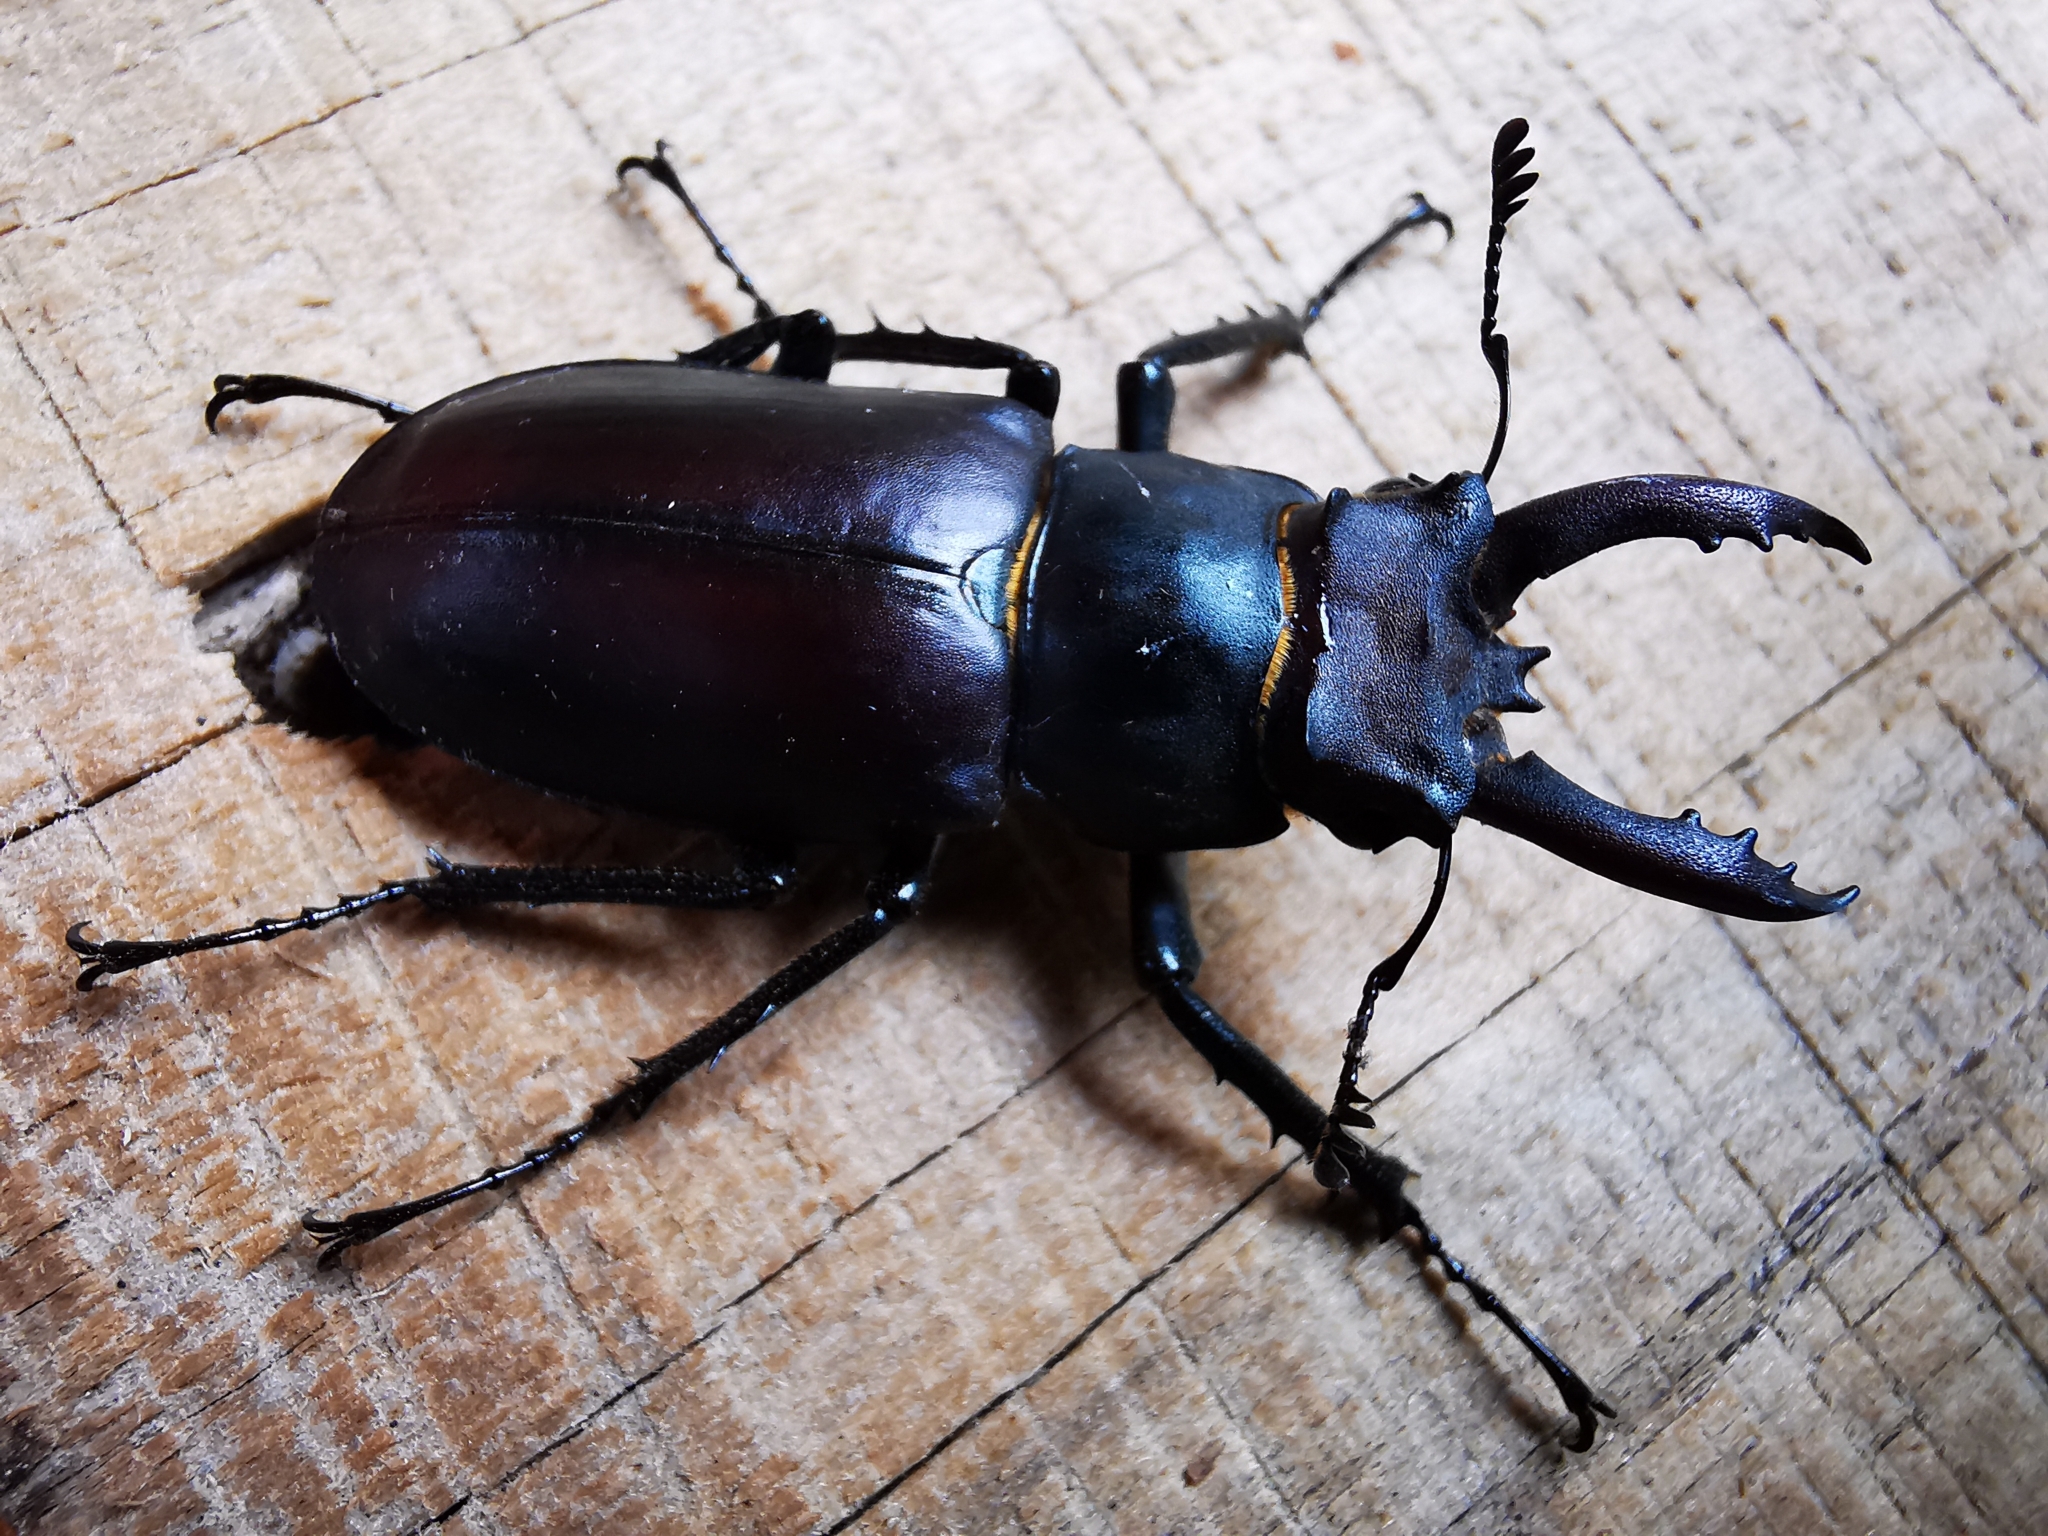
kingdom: Animalia
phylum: Arthropoda
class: Insecta
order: Coleoptera
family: Lucanidae
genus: Lucanus
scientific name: Lucanus formosanus
